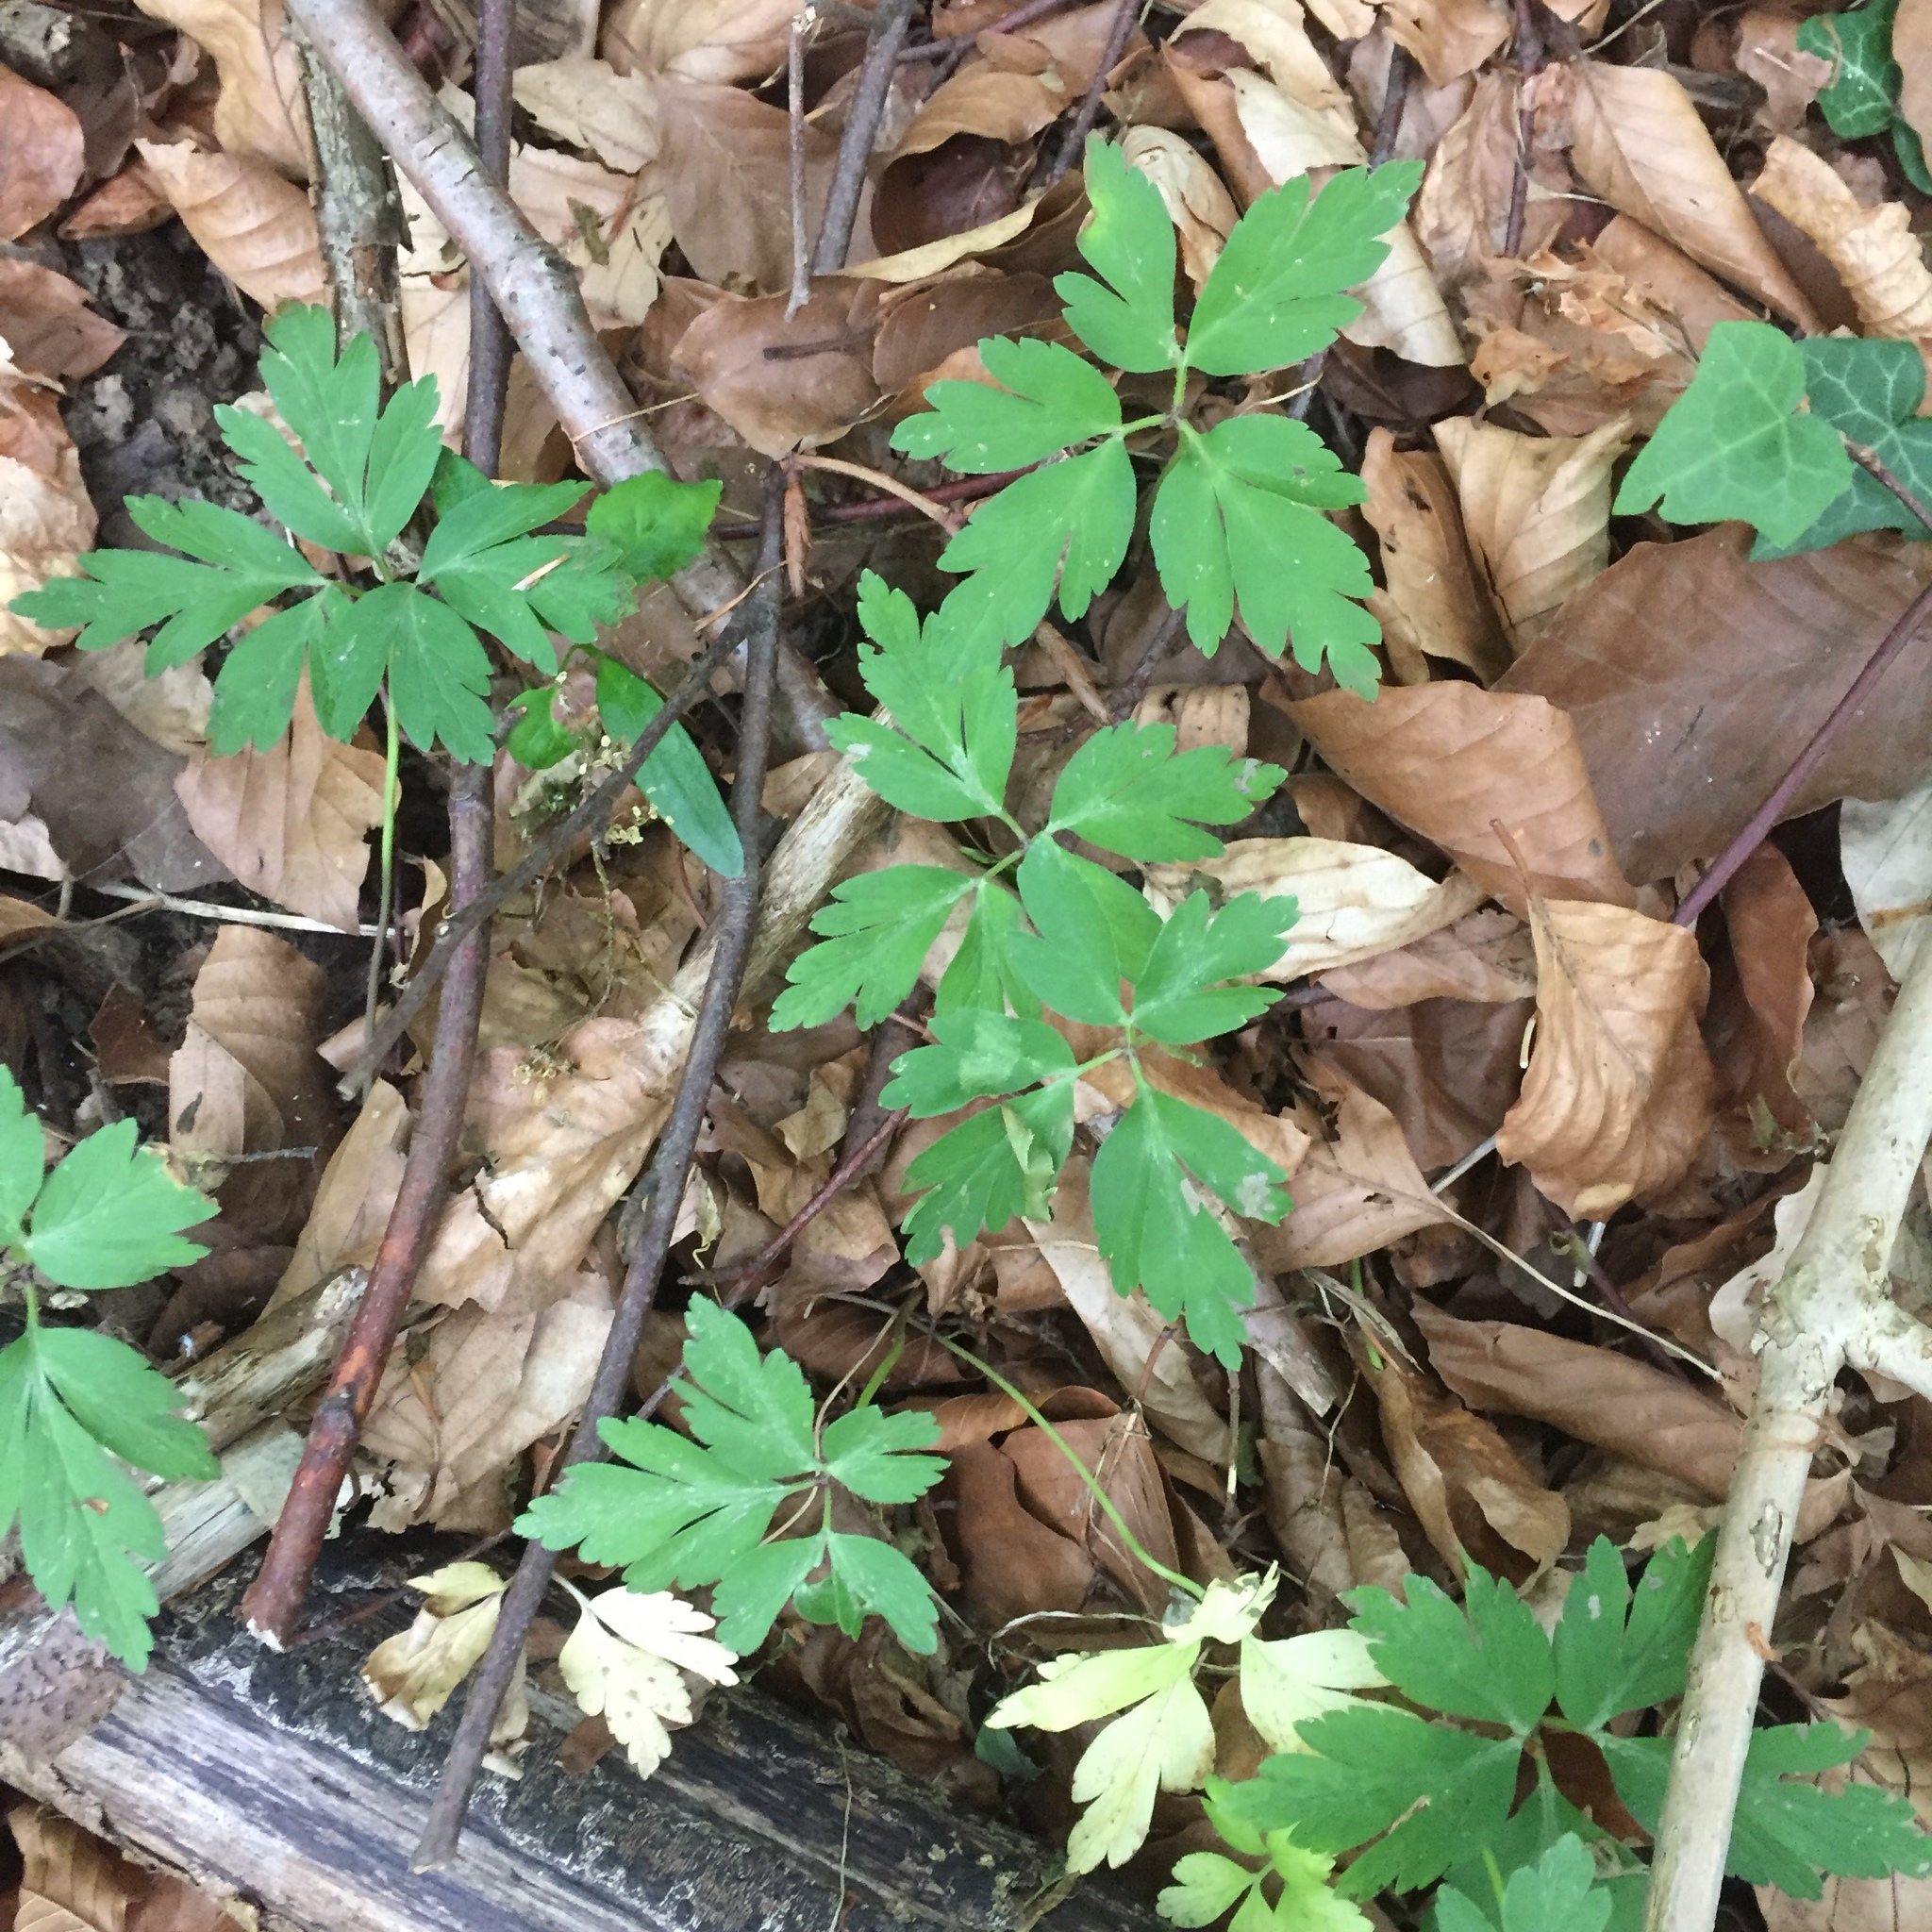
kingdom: Plantae
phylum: Tracheophyta
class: Magnoliopsida
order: Ranunculales
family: Ranunculaceae
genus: Anemone
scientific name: Anemone nemorosa
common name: Wood anemone
